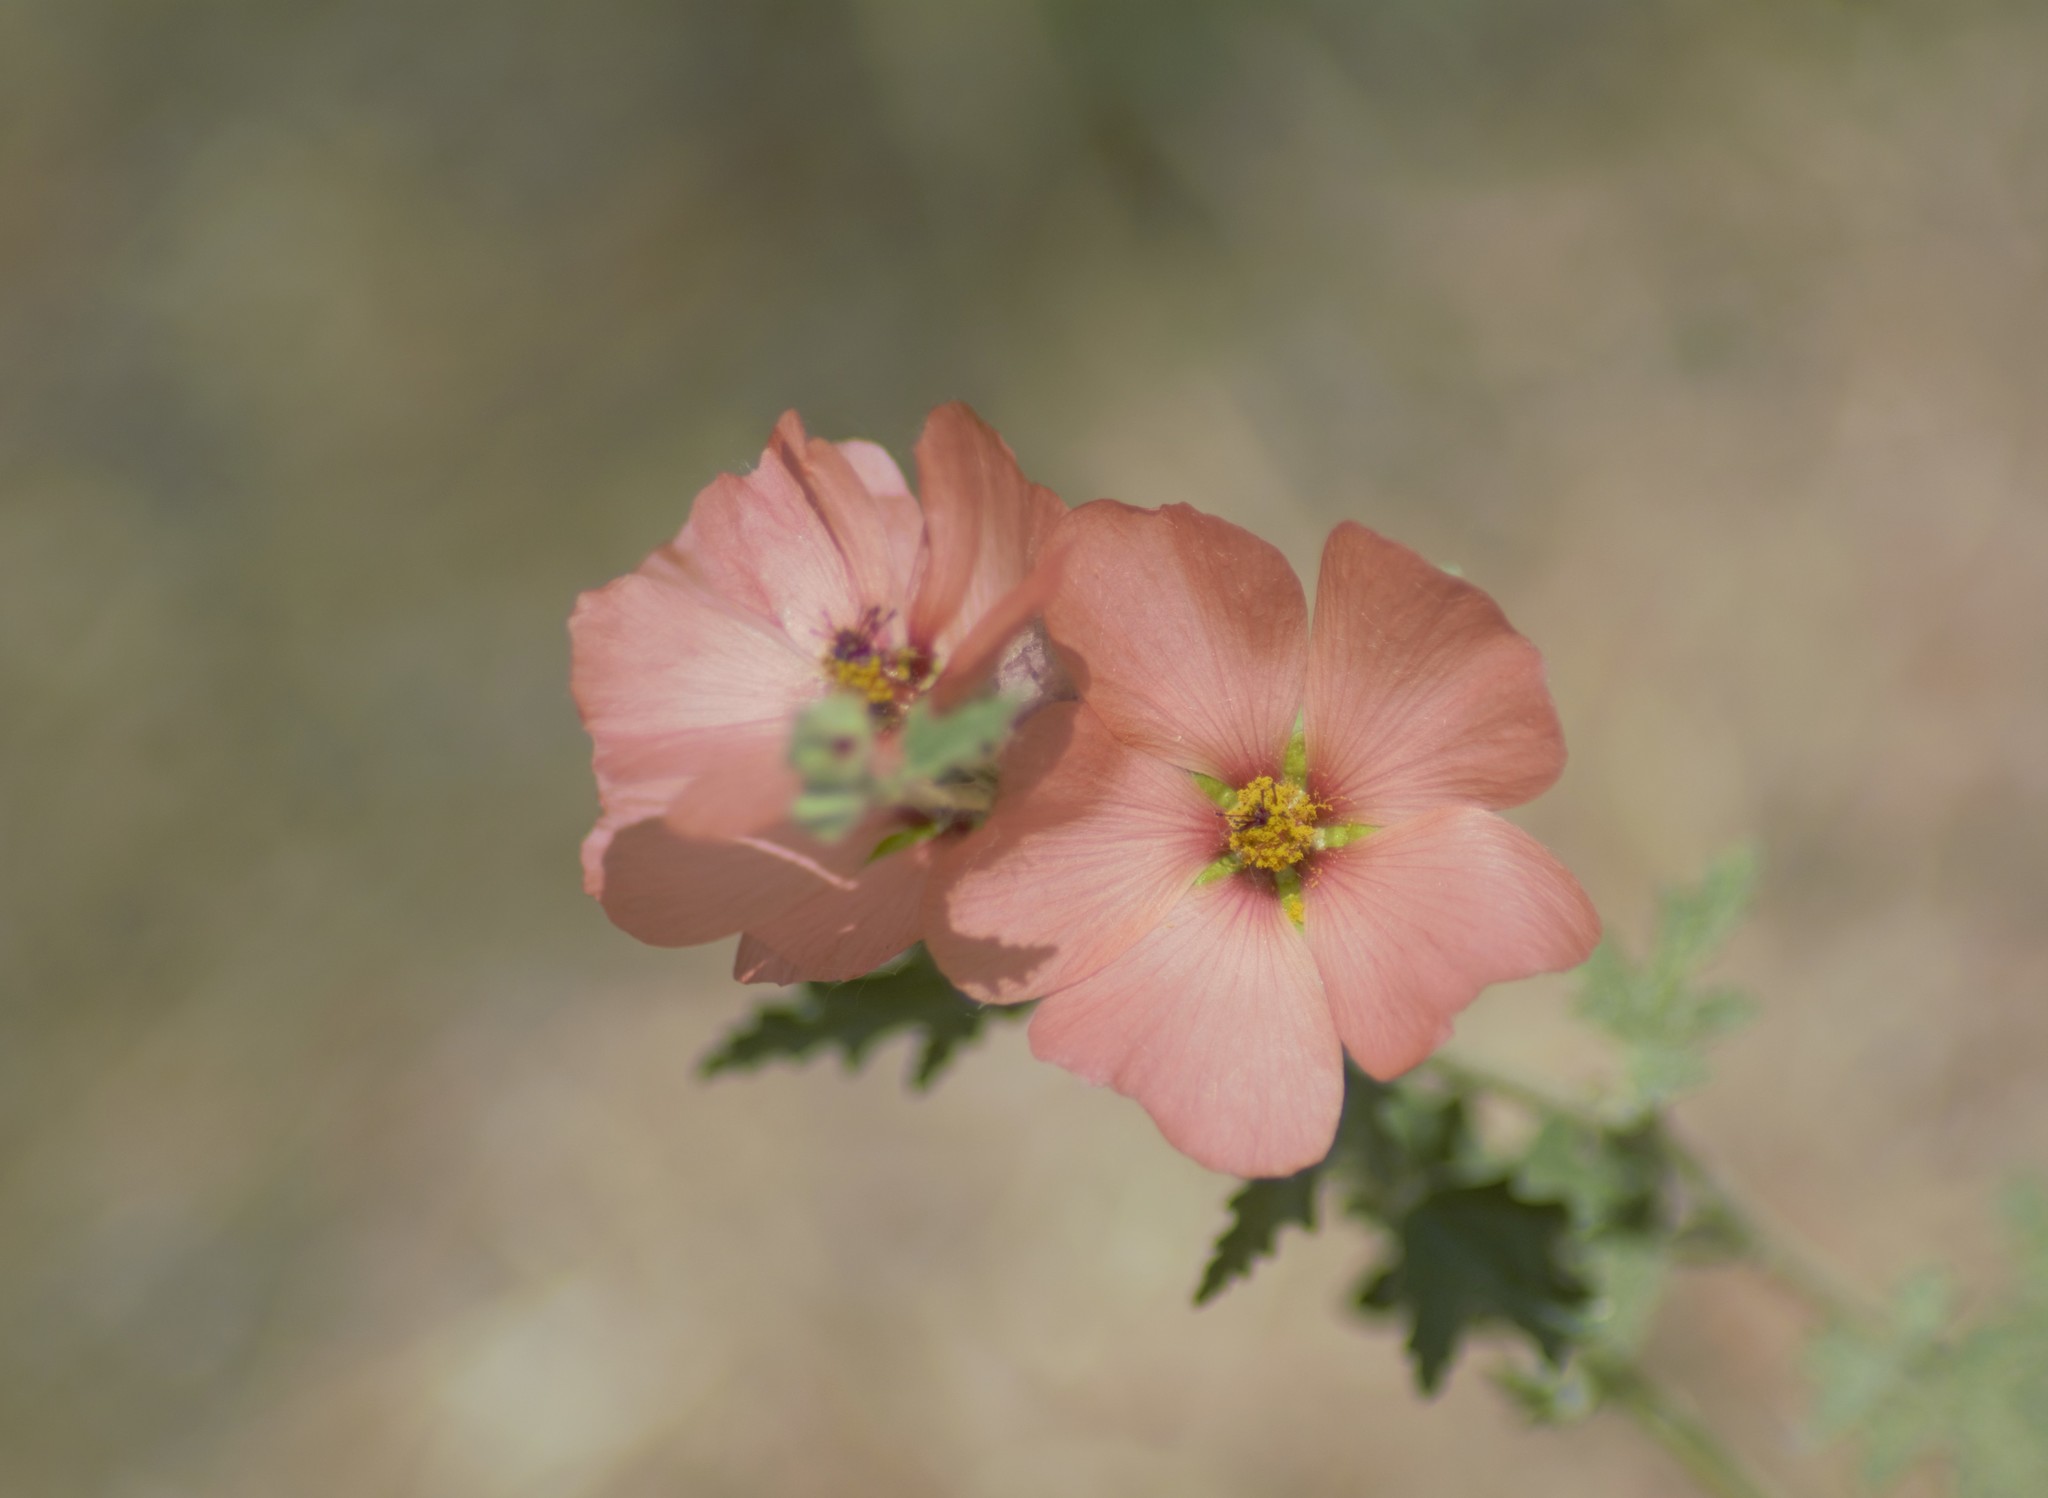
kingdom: Plantae
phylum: Tracheophyta
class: Magnoliopsida
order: Malvales
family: Malvaceae
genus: Sphaeralcea
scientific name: Sphaeralcea bonariensis
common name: Latin globemallow
